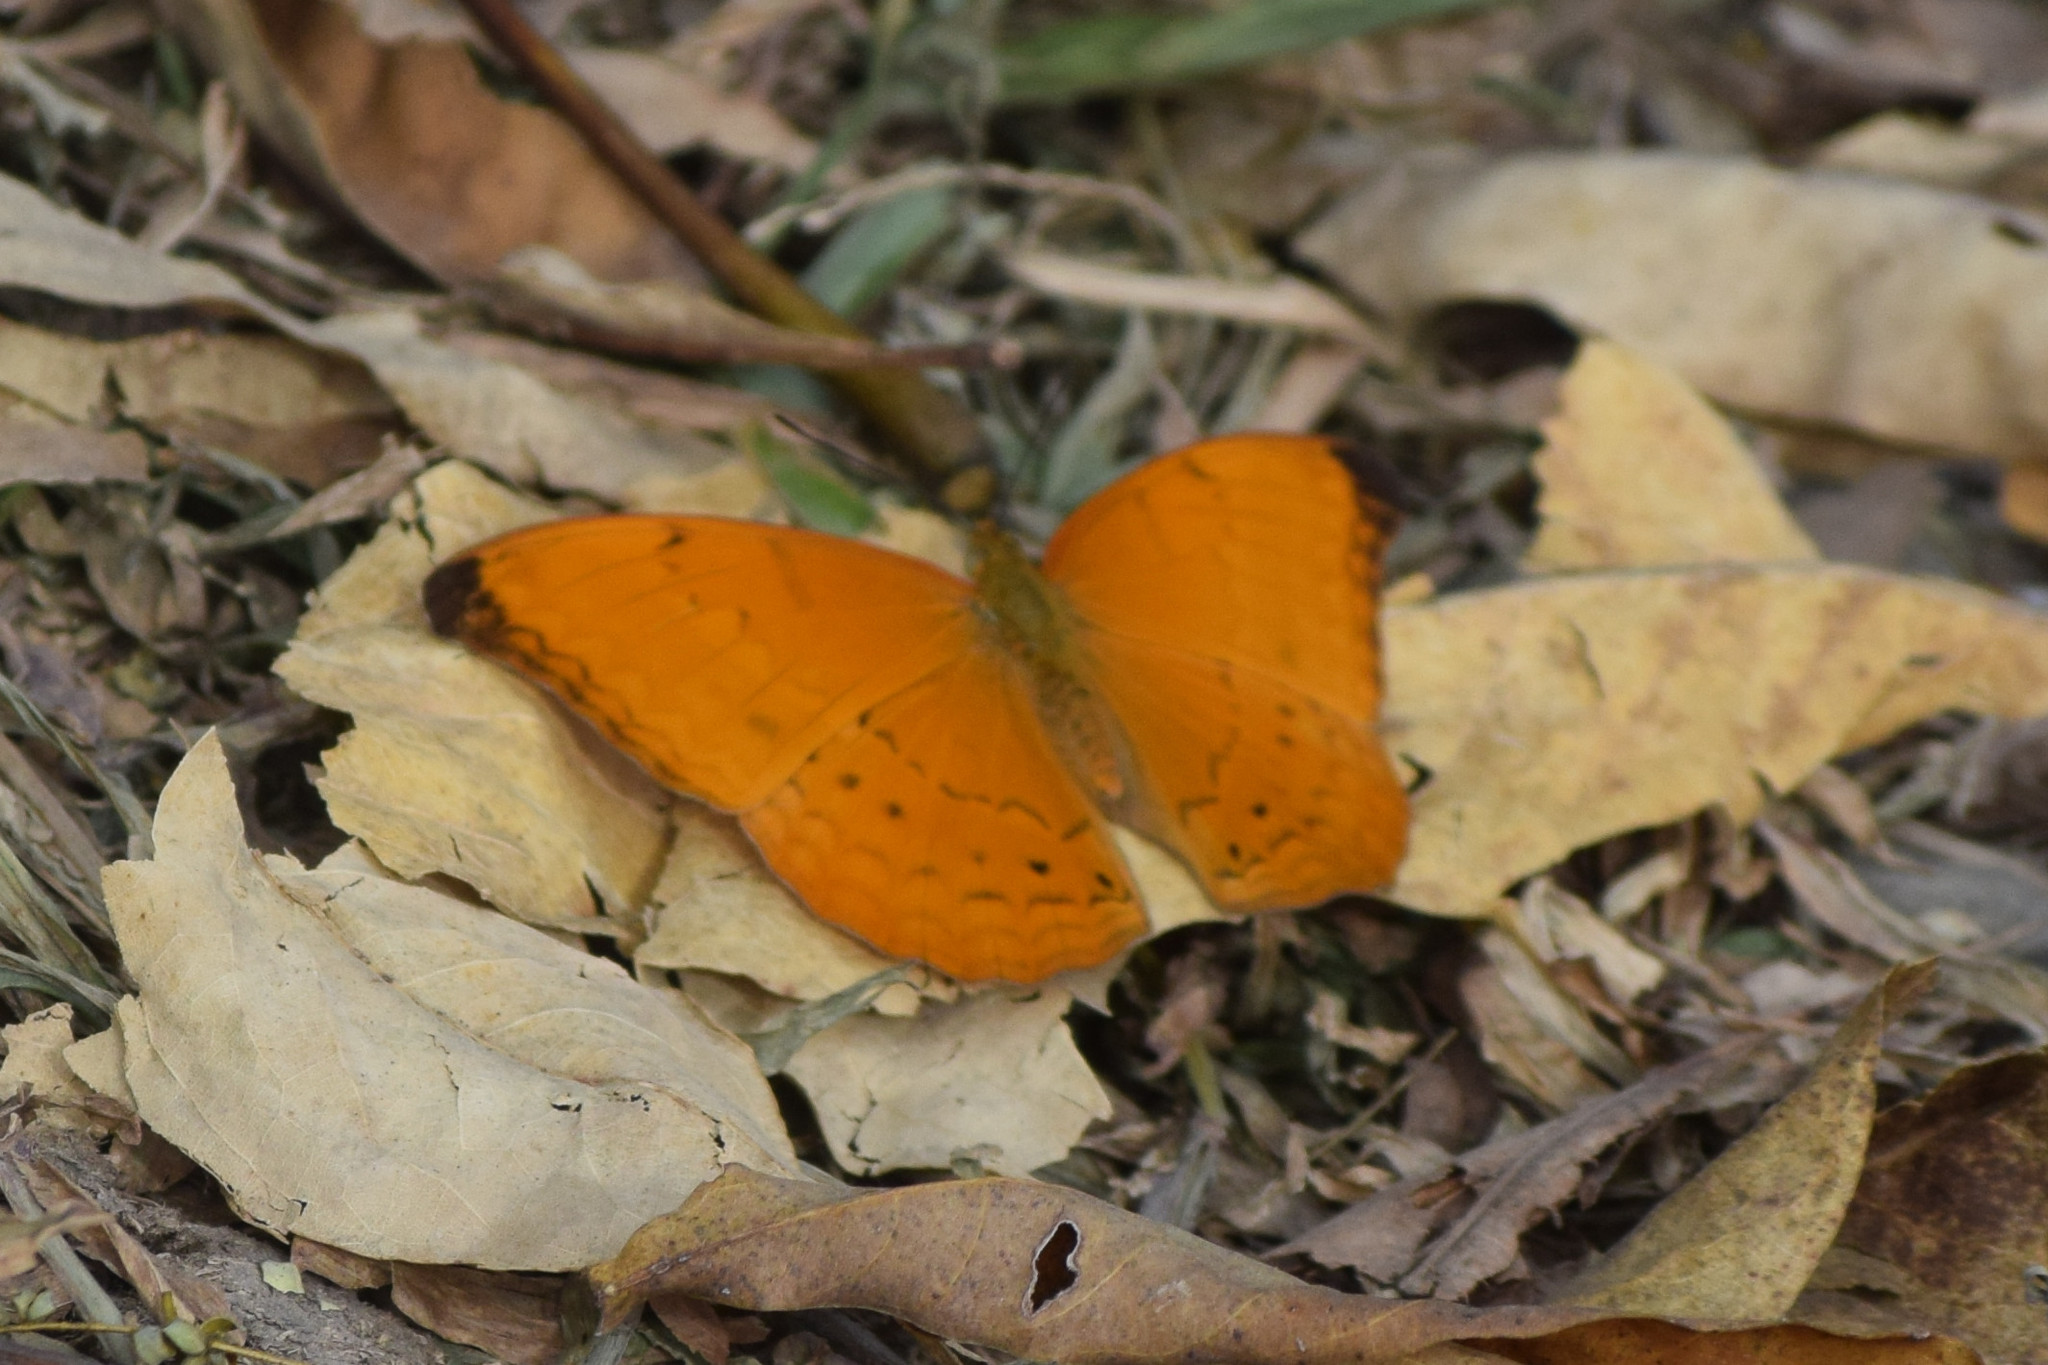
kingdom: Animalia
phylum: Arthropoda
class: Insecta
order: Lepidoptera
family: Nymphalidae
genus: Cirrochroa
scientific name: Cirrochroa aoris
